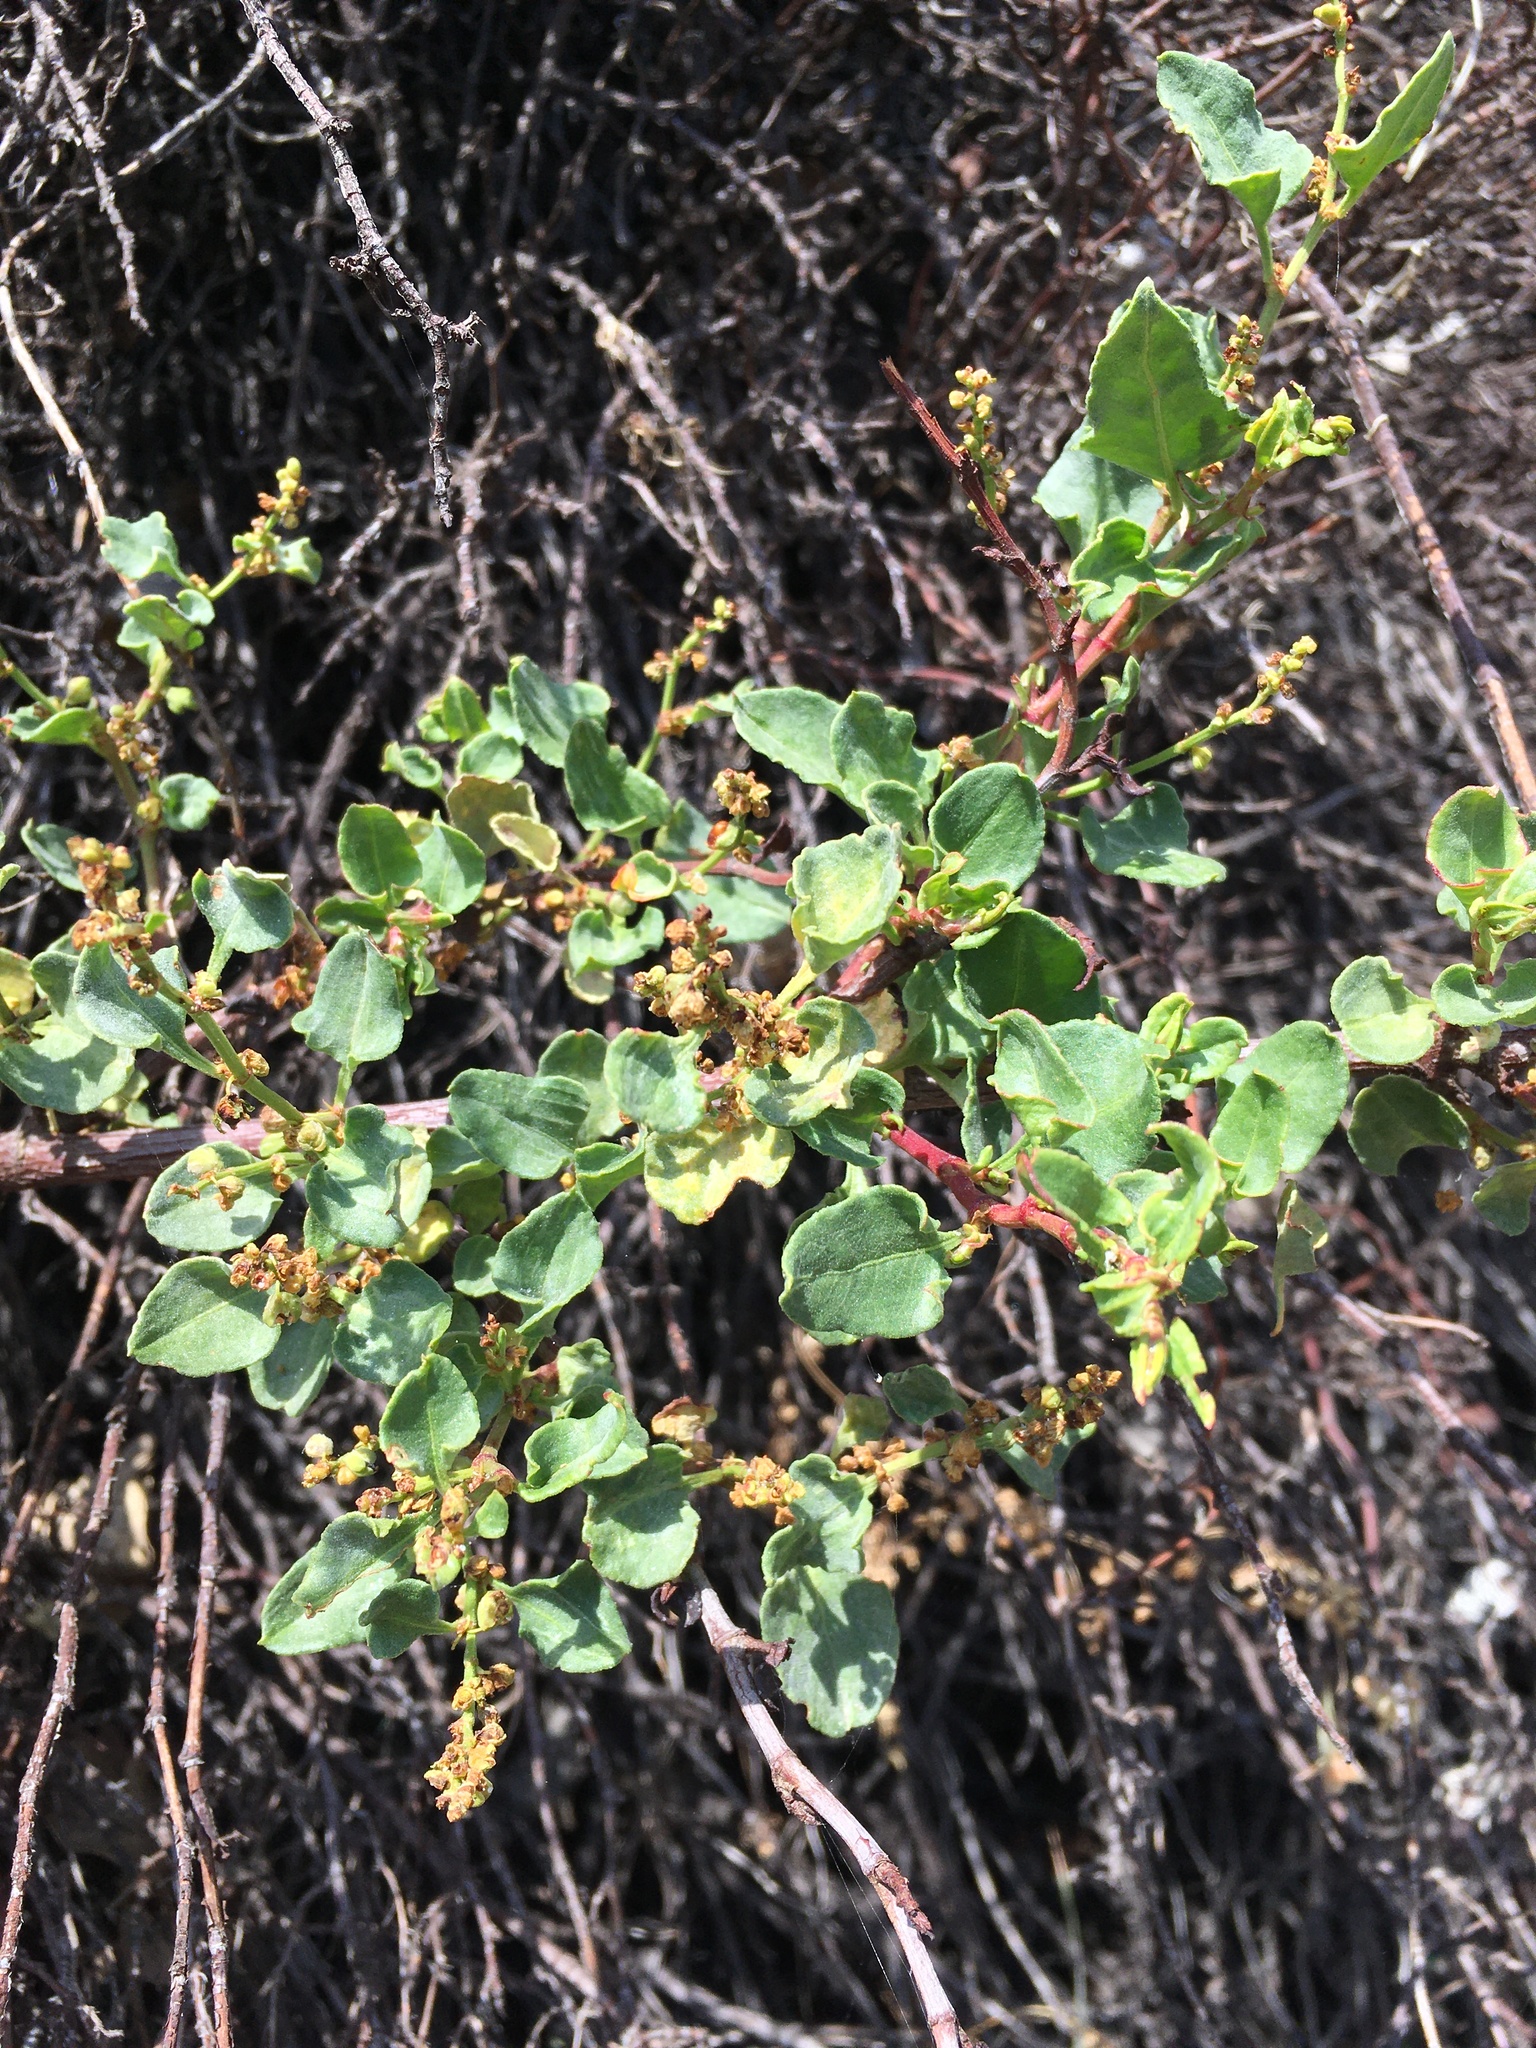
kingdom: Plantae
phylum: Tracheophyta
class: Magnoliopsida
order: Caryophyllales
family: Polygonaceae
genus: Muehlenbeckia
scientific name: Muehlenbeckia hastulata
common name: Wirevine
